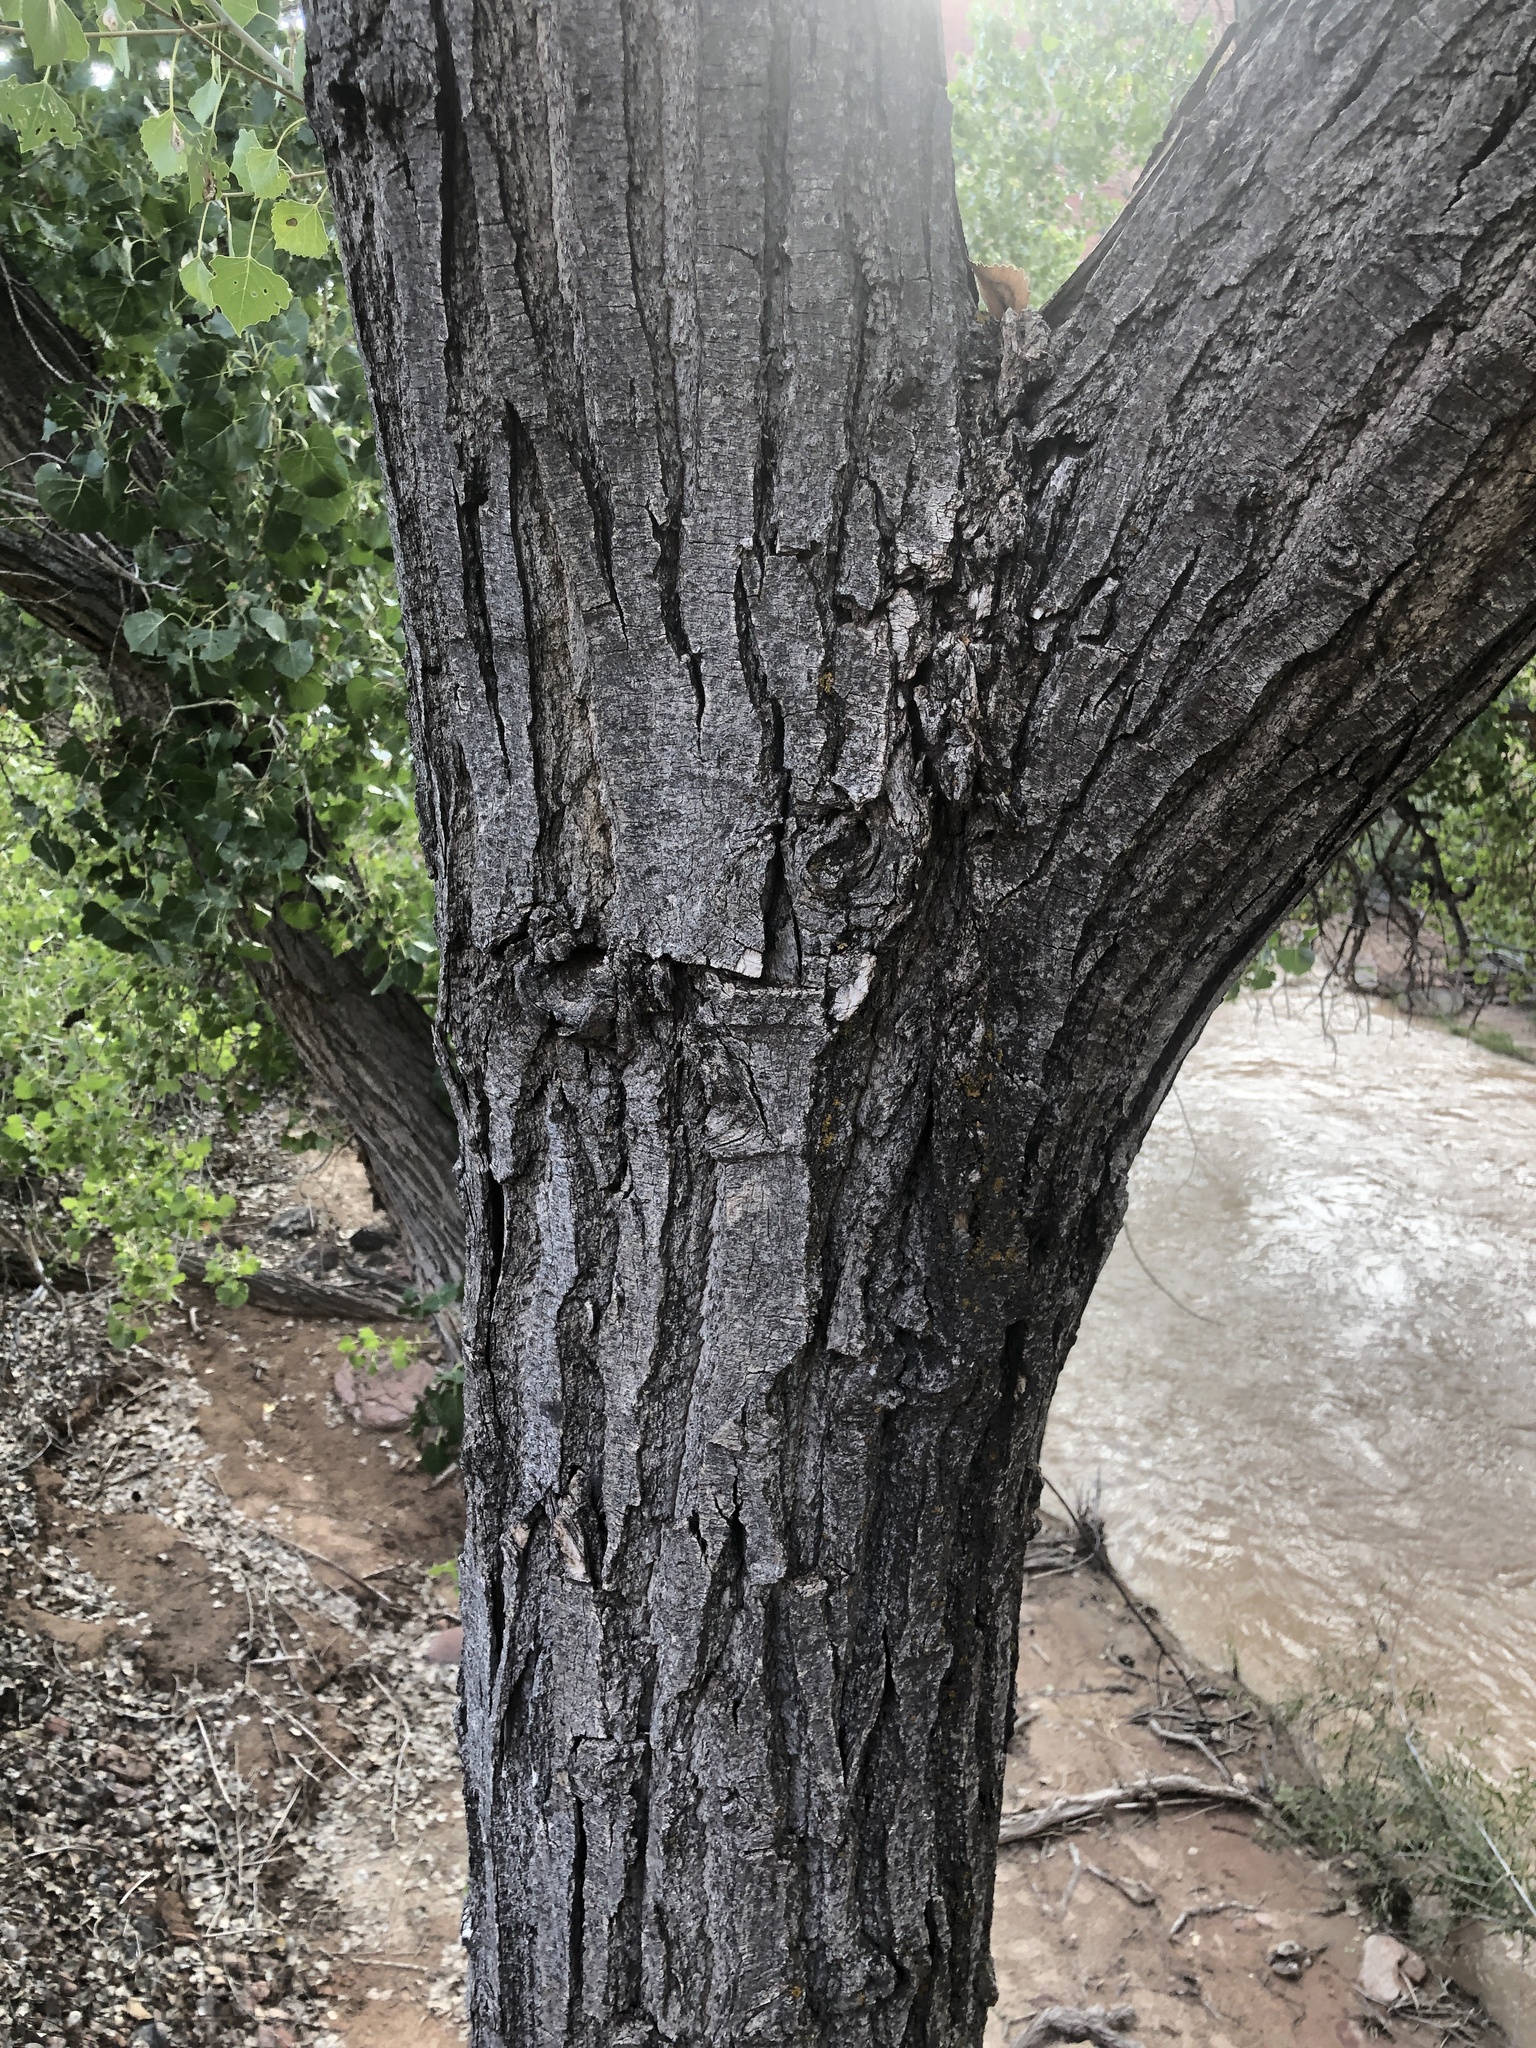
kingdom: Plantae
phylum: Tracheophyta
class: Magnoliopsida
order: Malpighiales
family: Salicaceae
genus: Populus
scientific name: Populus fremontii
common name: Fremont's cottonwood
